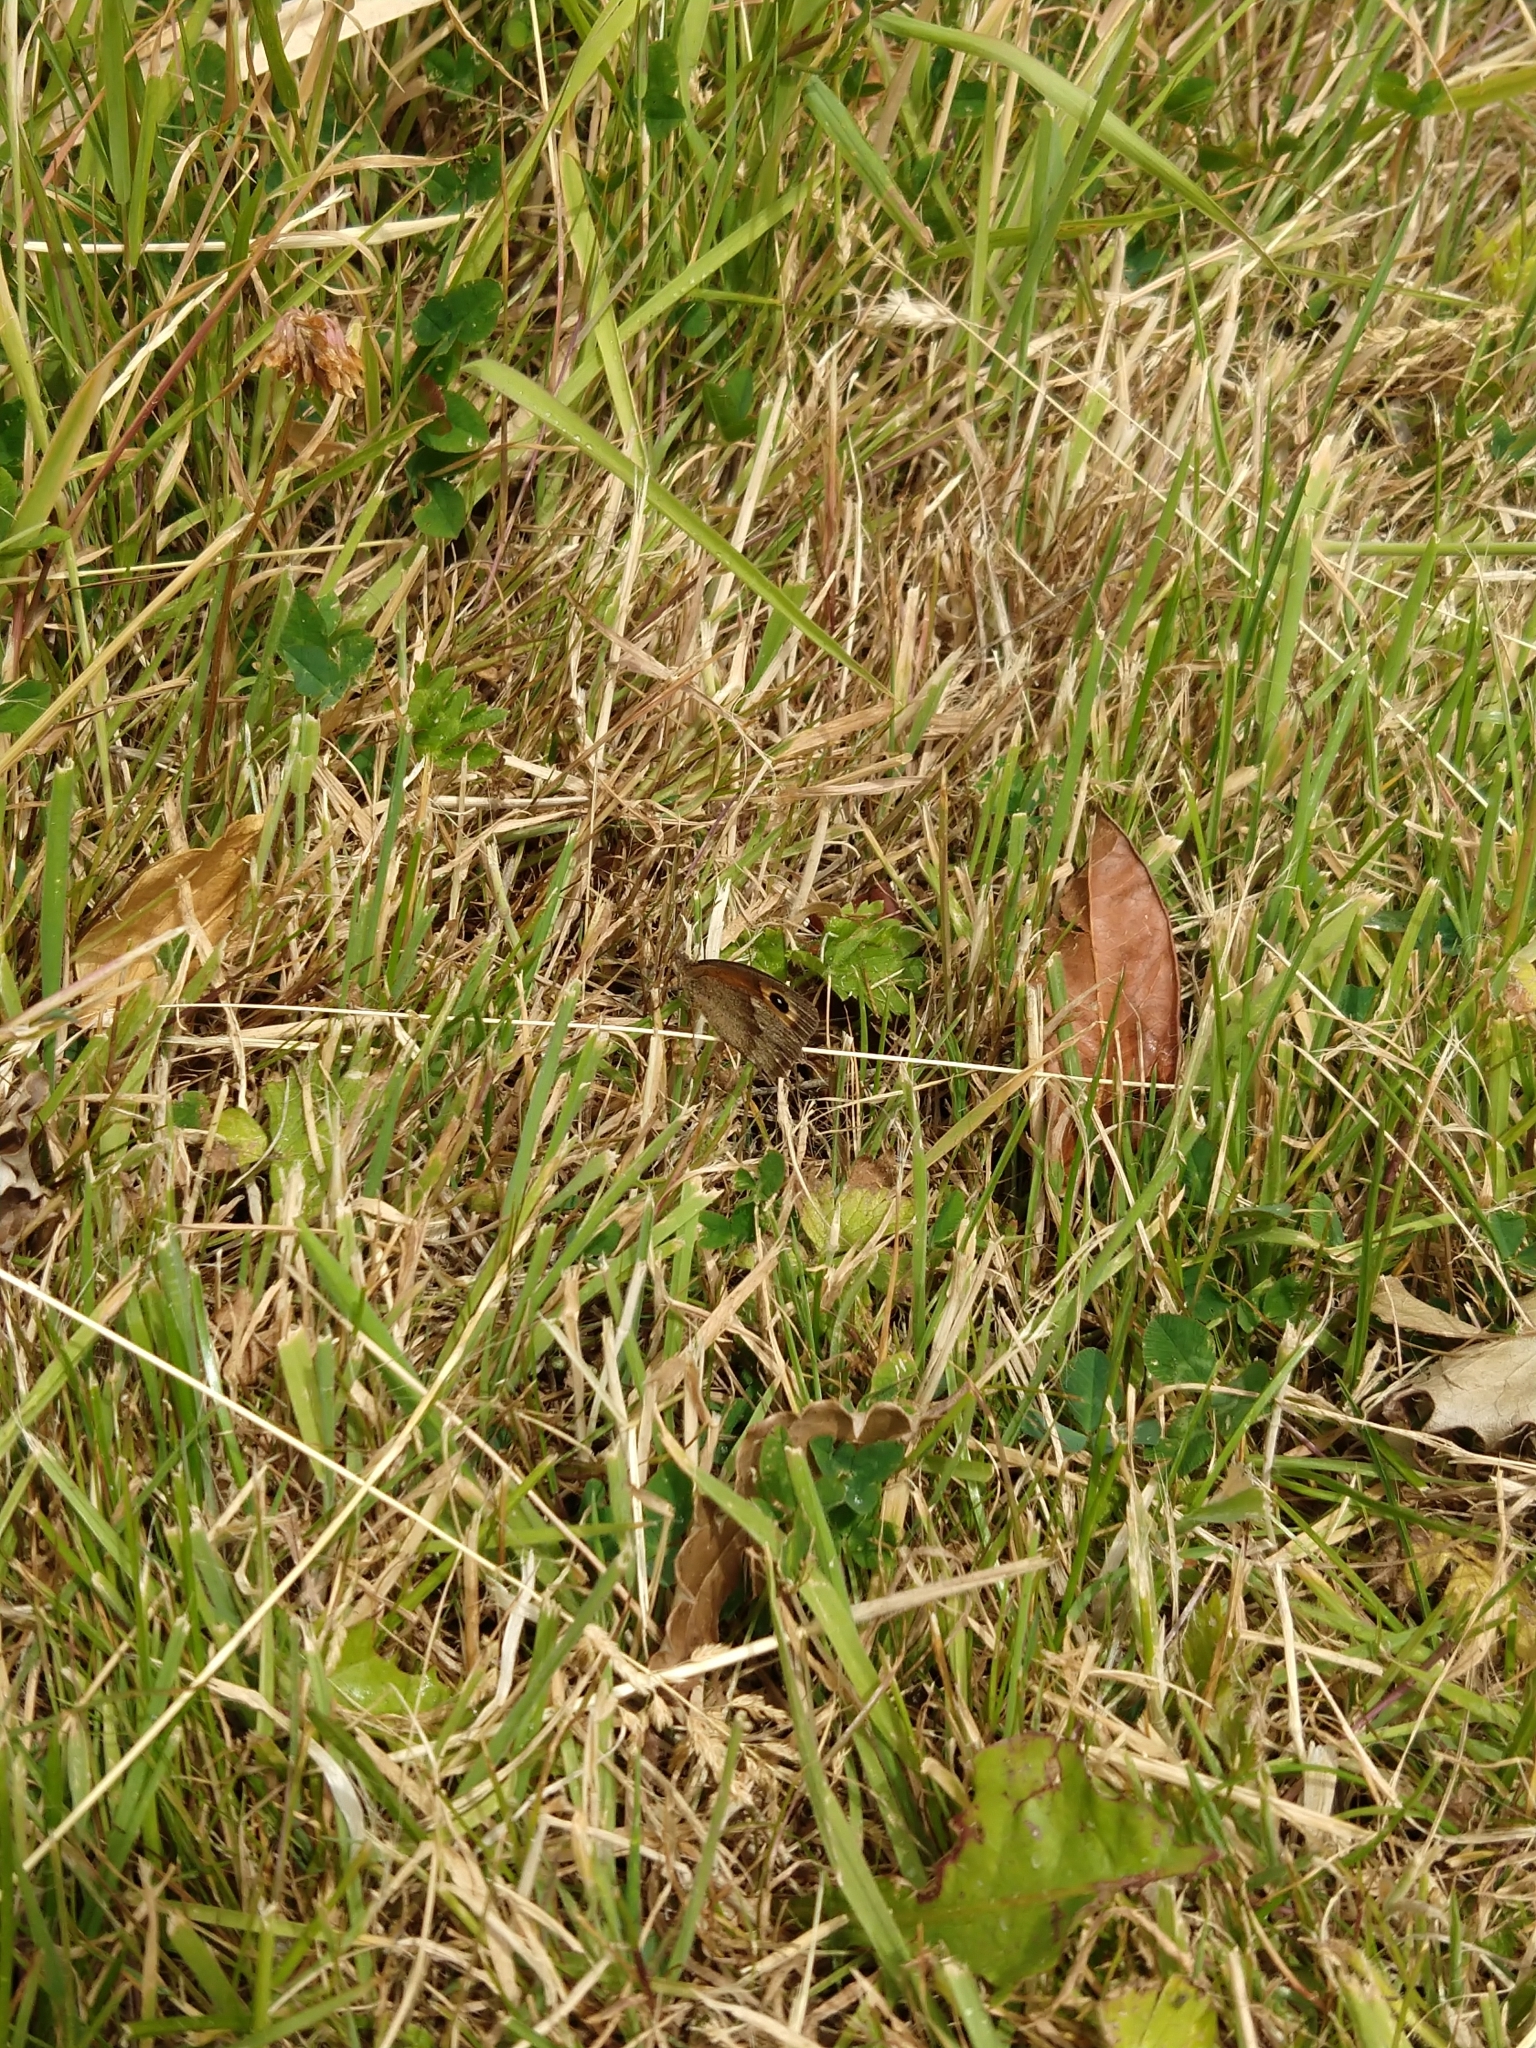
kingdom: Animalia
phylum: Arthropoda
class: Insecta
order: Lepidoptera
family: Nymphalidae
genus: Maniola
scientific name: Maniola jurtina
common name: Meadow brown
